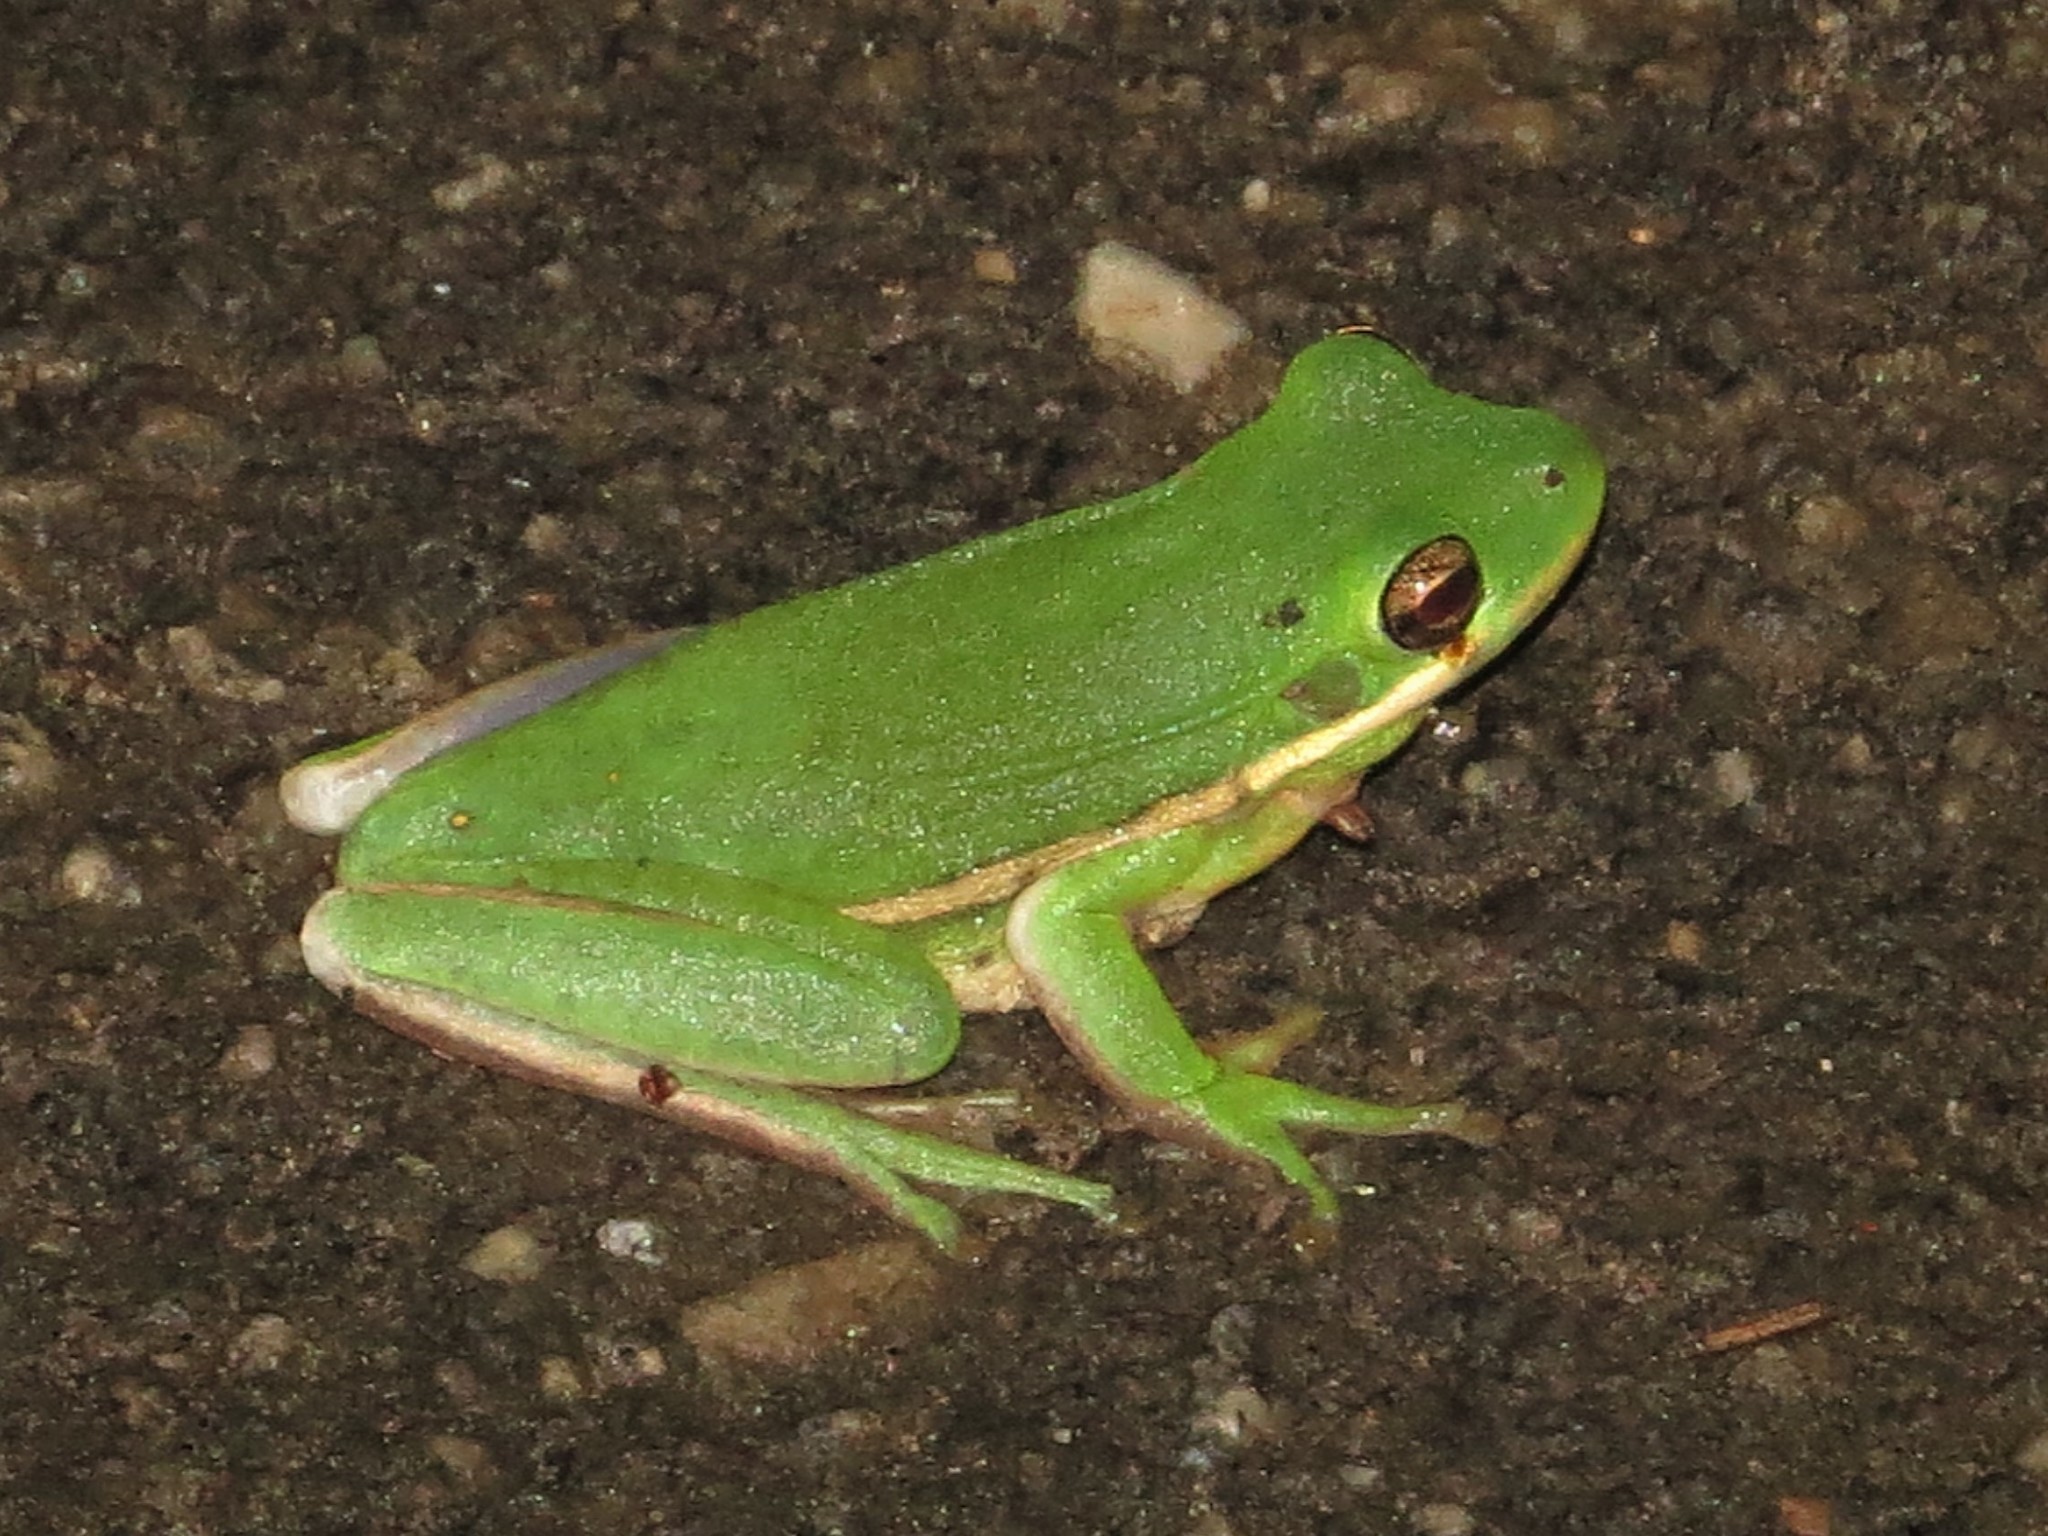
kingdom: Animalia
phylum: Chordata
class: Amphibia
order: Anura
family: Hylidae
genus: Dryophytes
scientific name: Dryophytes cinereus
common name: Green treefrog
